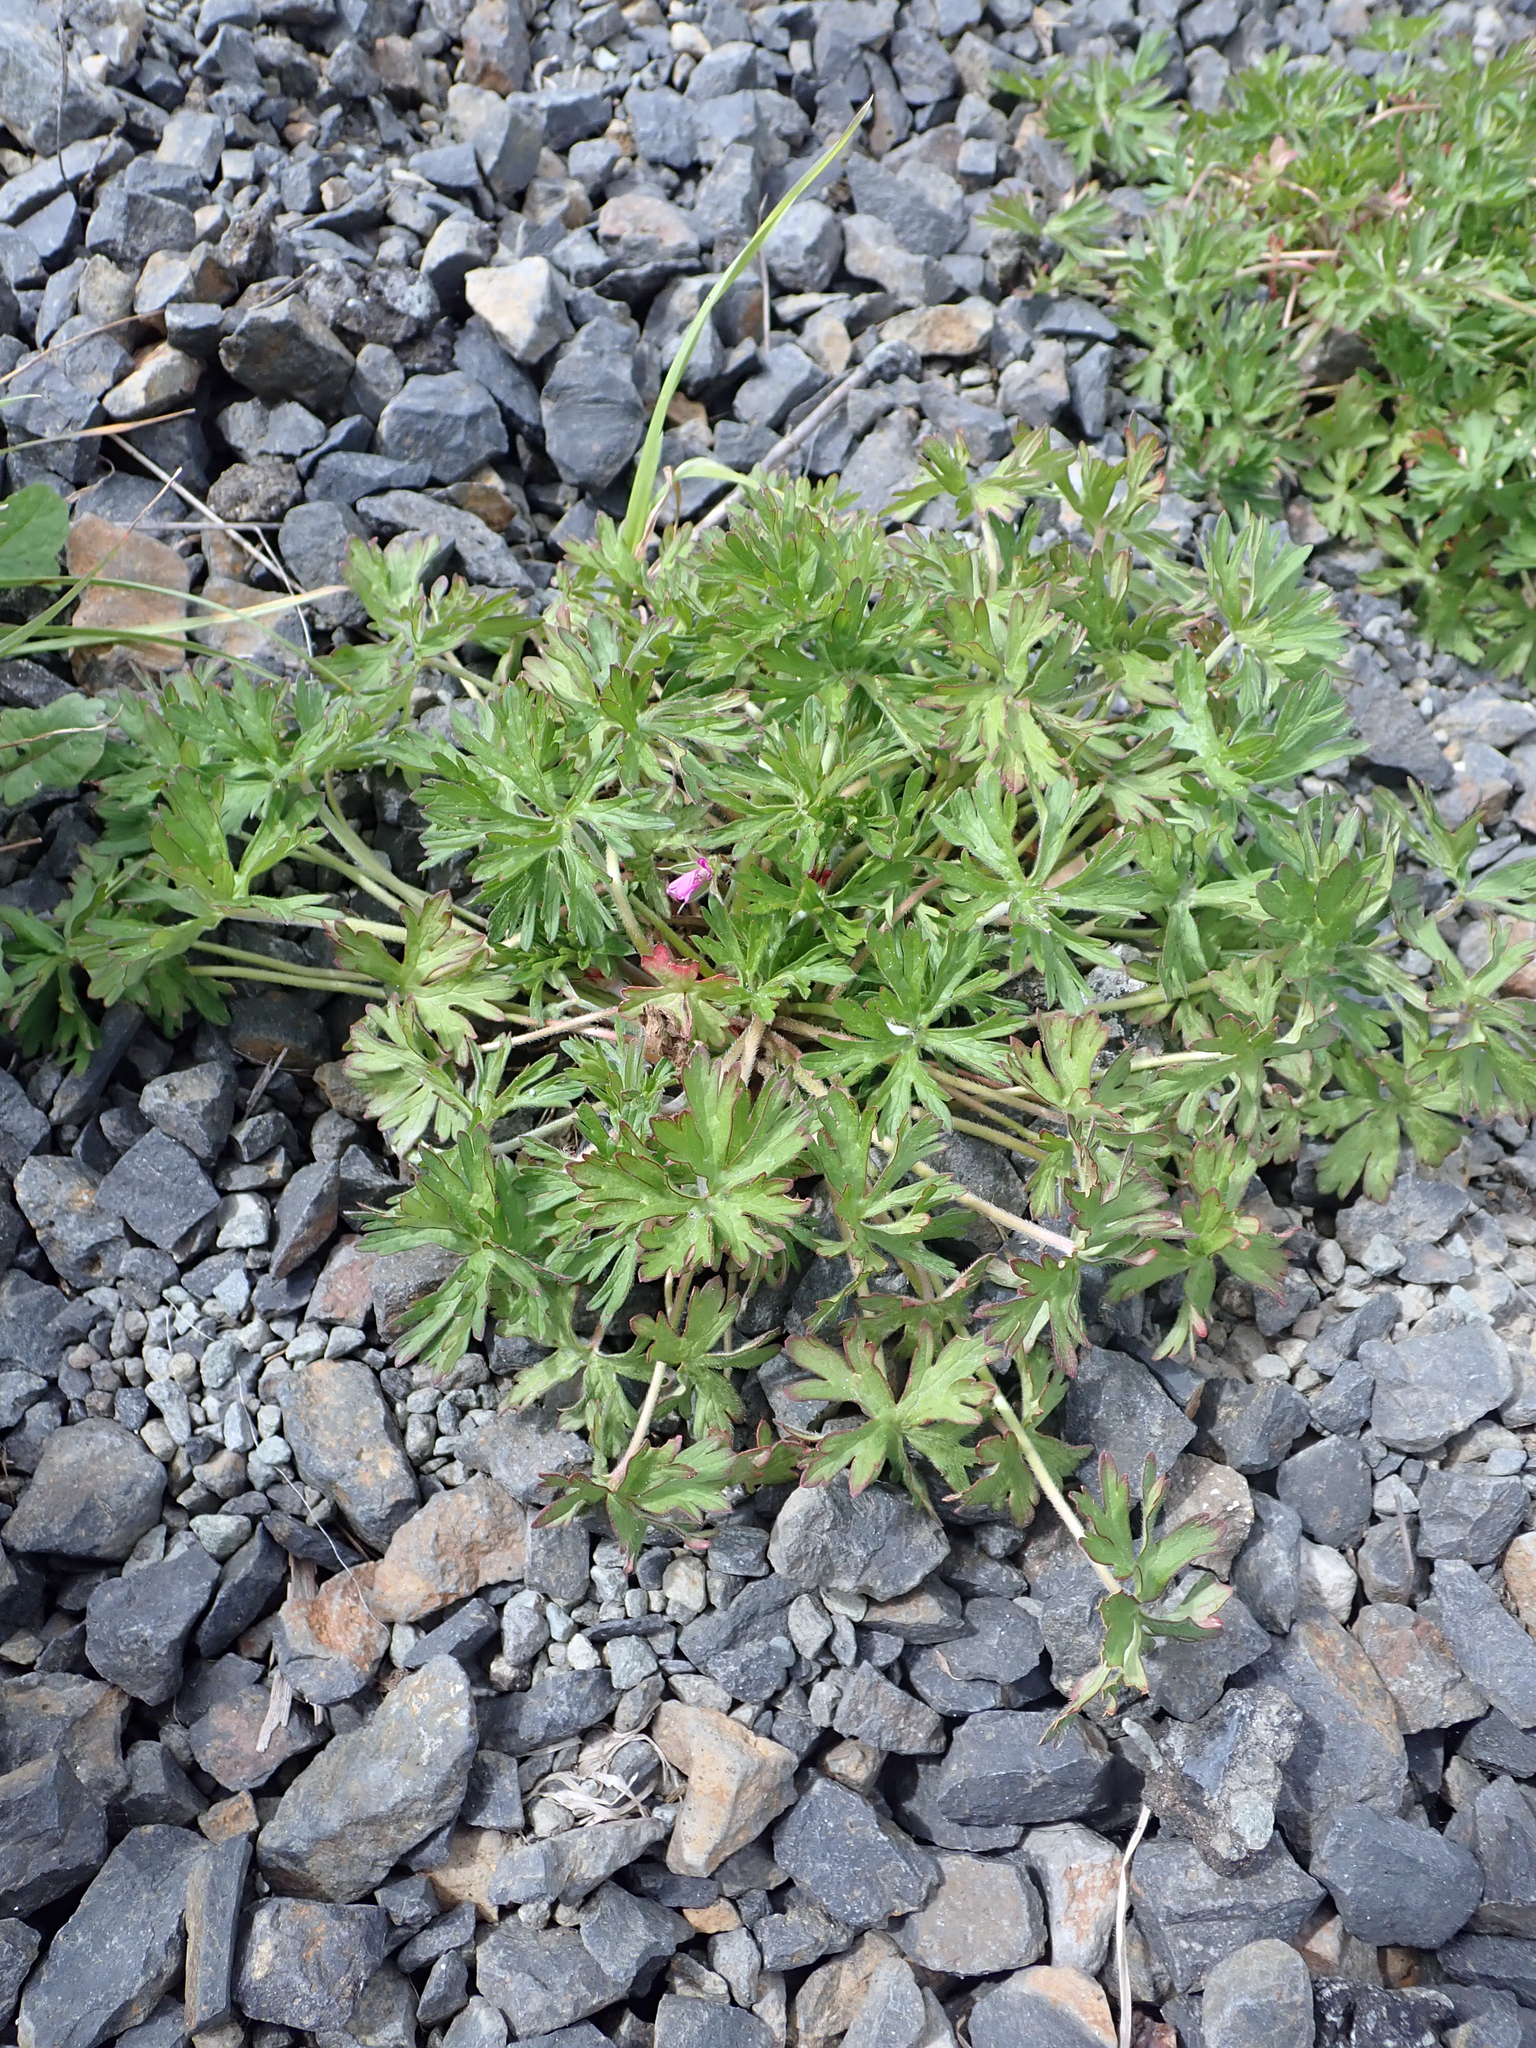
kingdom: Plantae
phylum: Tracheophyta
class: Magnoliopsida
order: Geraniales
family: Geraniaceae
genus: Geranium
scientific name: Geranium dissectum
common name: Cut-leaved crane's-bill
